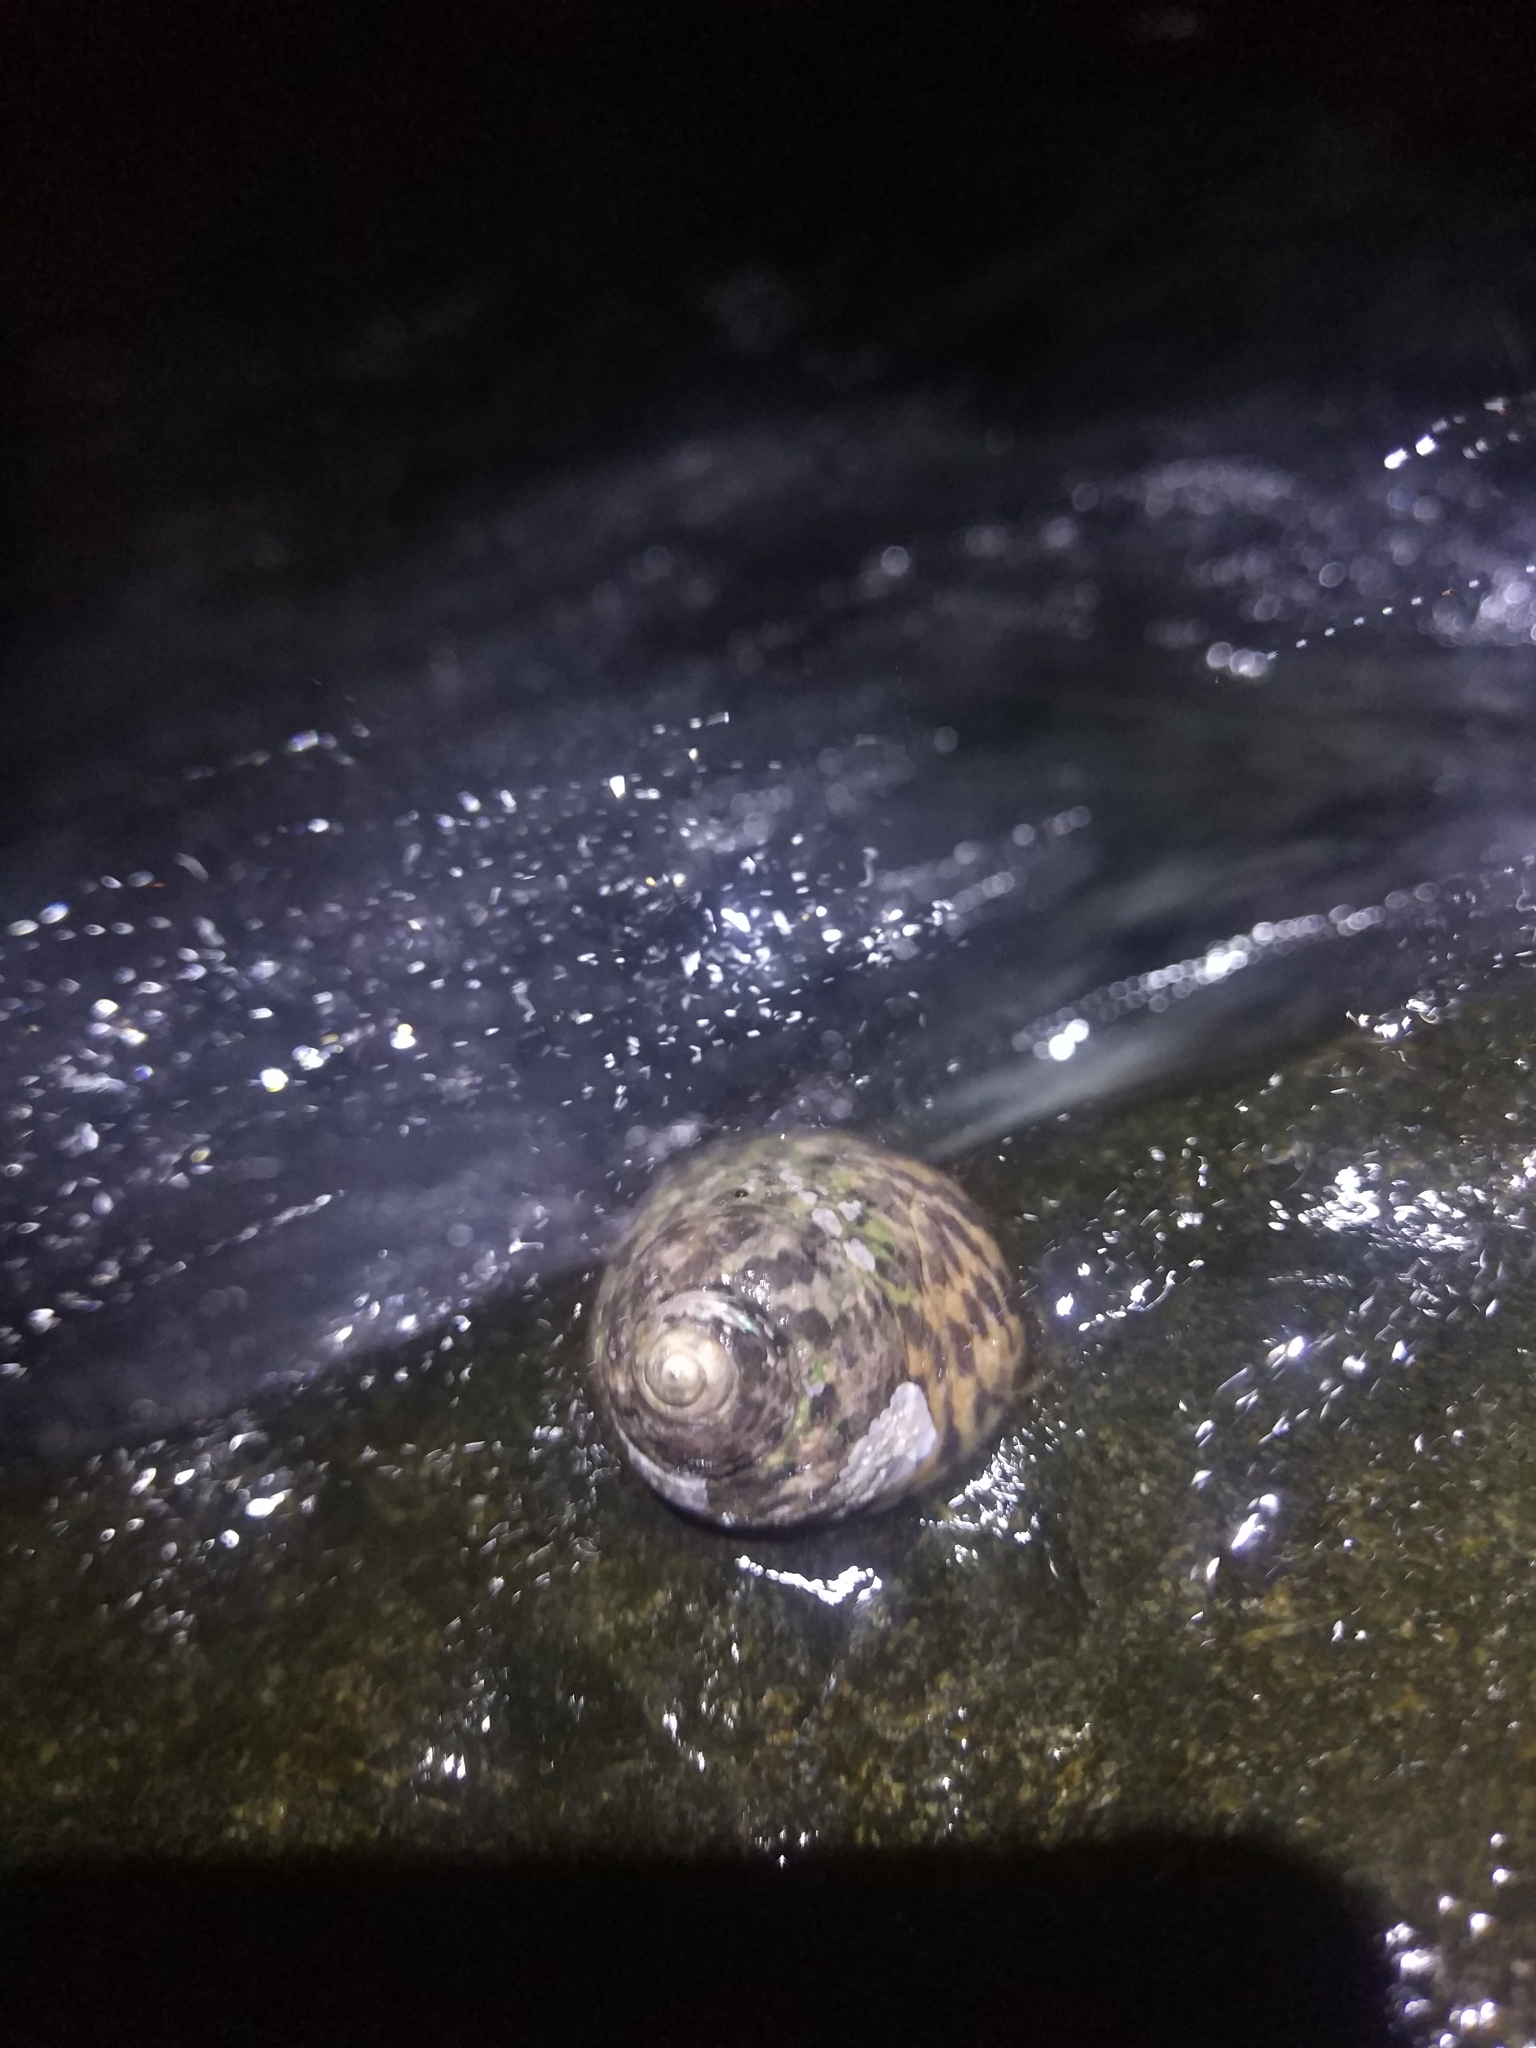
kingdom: Animalia
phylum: Mollusca
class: Gastropoda
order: Trochida
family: Trochidae
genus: Phorcus
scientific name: Phorcus turbinatus
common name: Turbinate monodont
